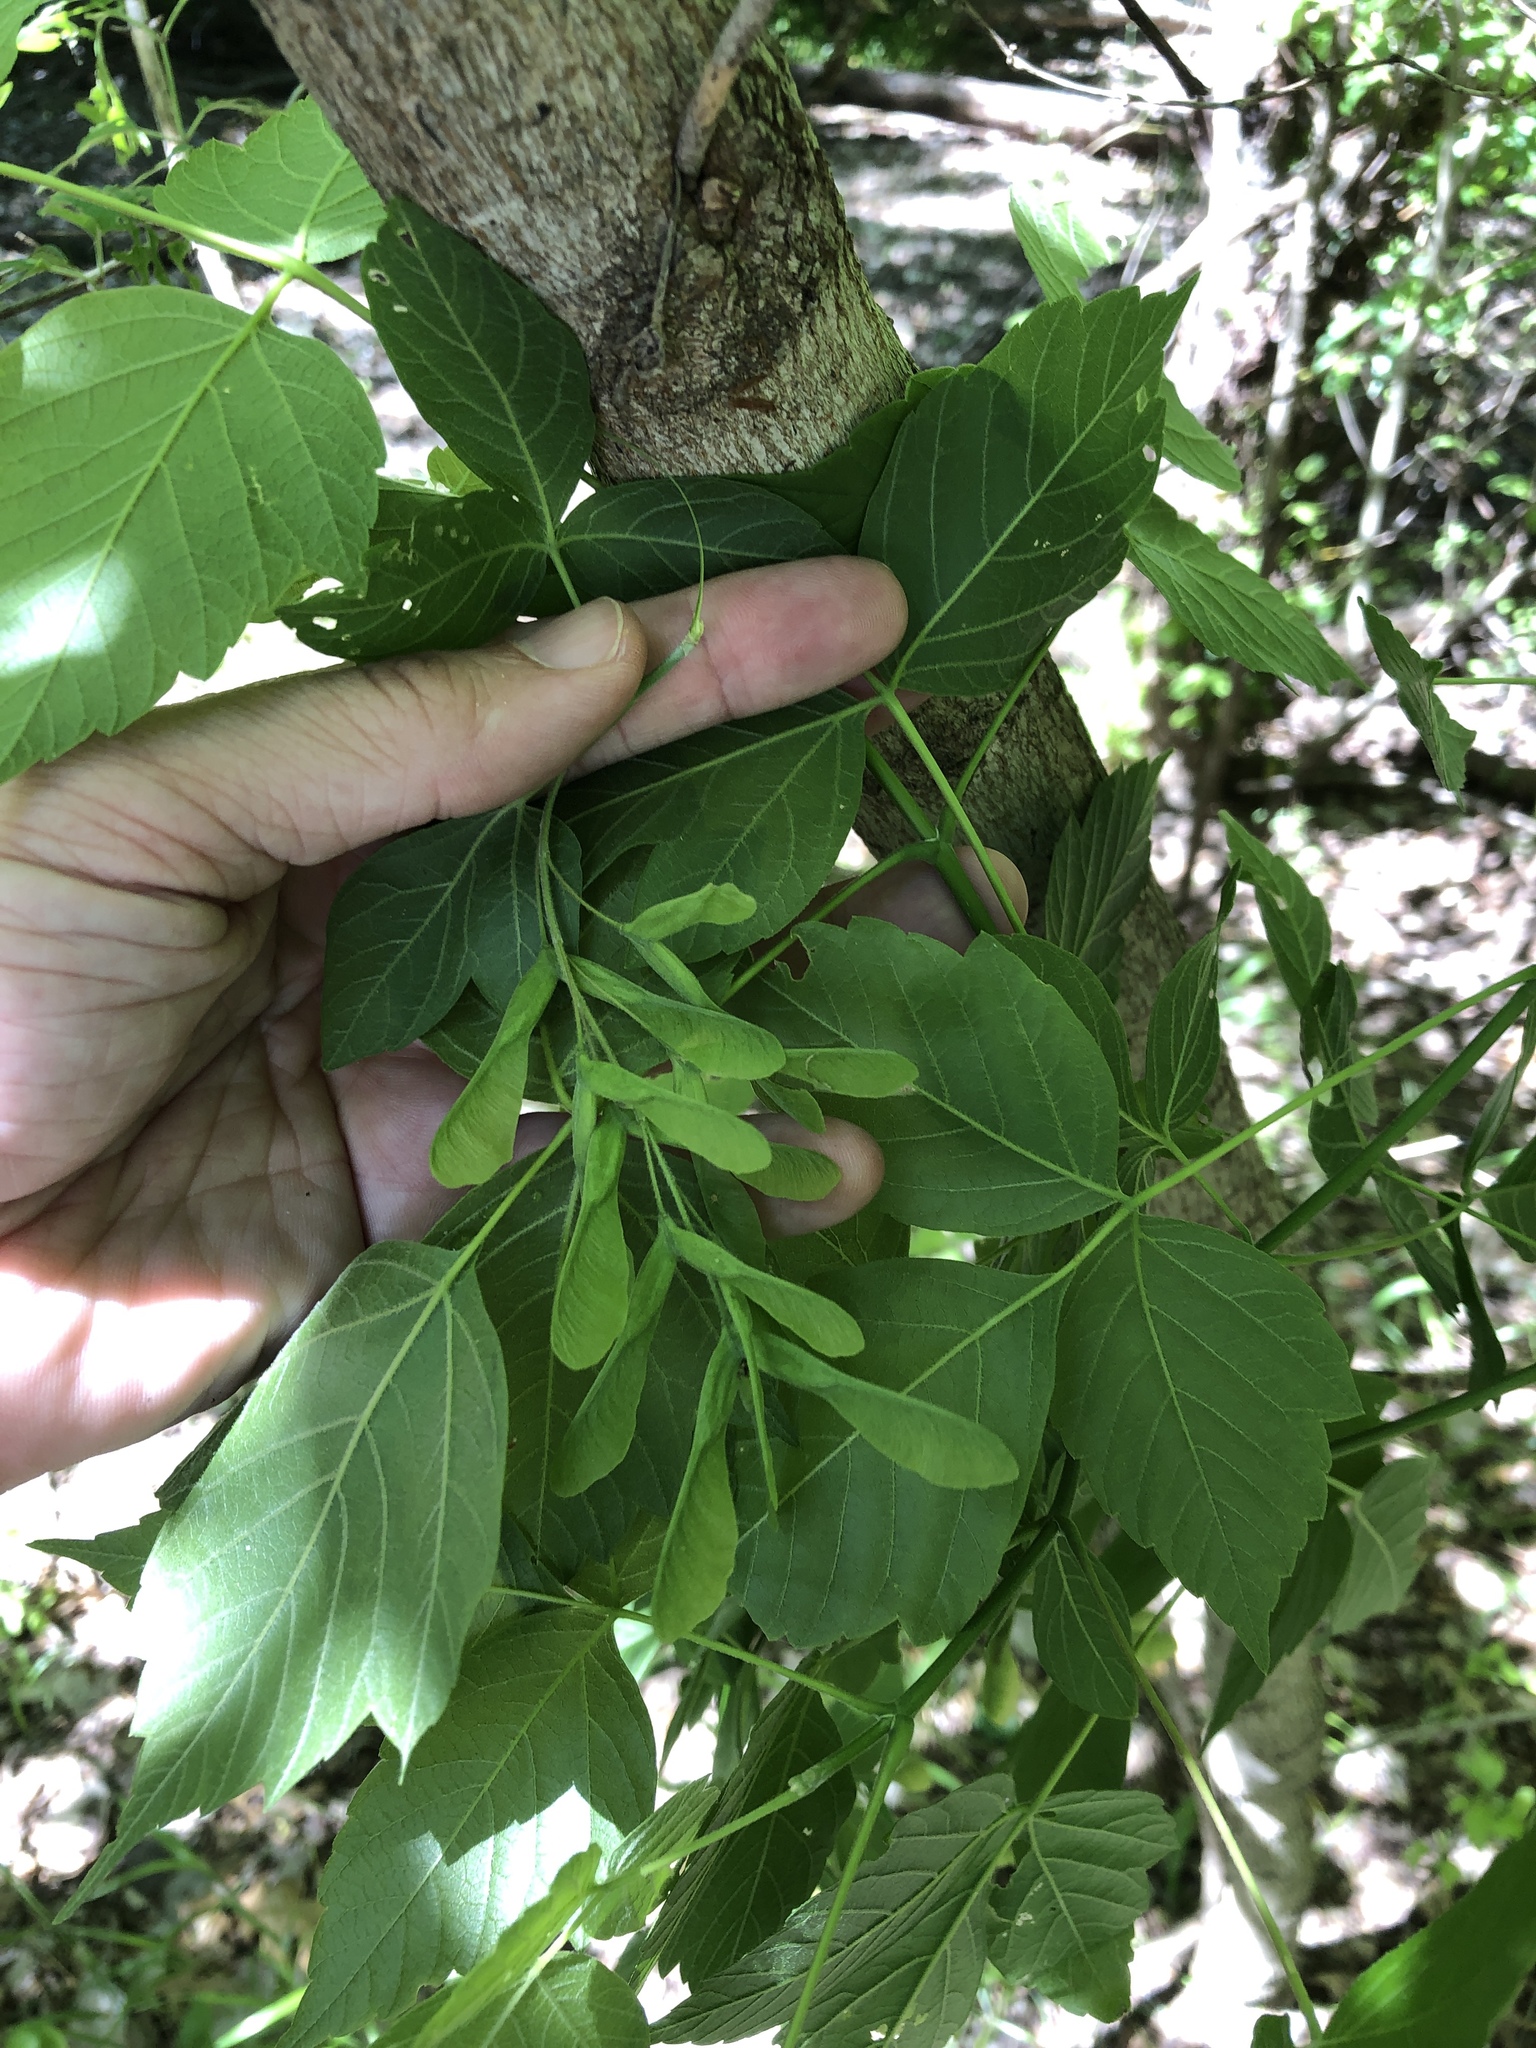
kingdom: Plantae
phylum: Tracheophyta
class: Magnoliopsida
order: Sapindales
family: Sapindaceae
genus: Acer
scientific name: Acer negundo
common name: Ashleaf maple
